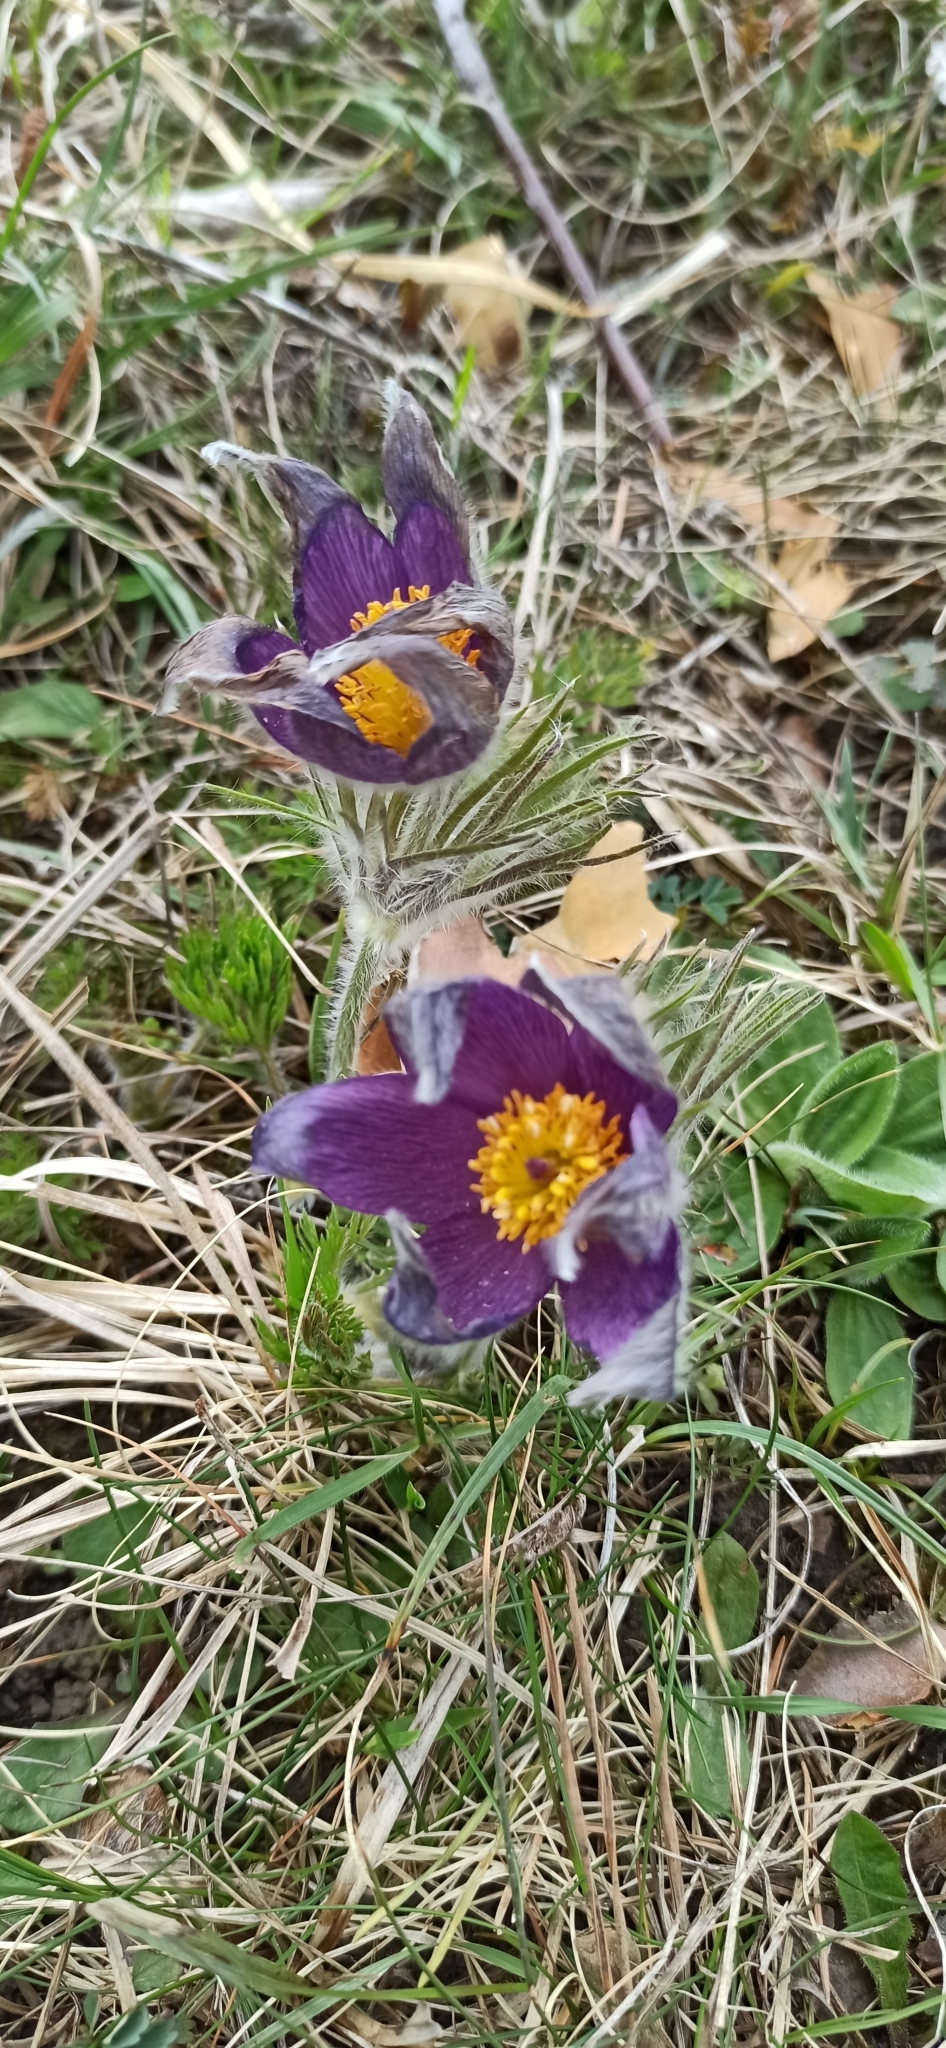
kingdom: Plantae
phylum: Tracheophyta
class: Magnoliopsida
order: Ranunculales
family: Ranunculaceae
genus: Pulsatilla
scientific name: Pulsatilla vulgaris
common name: Pasqueflower
